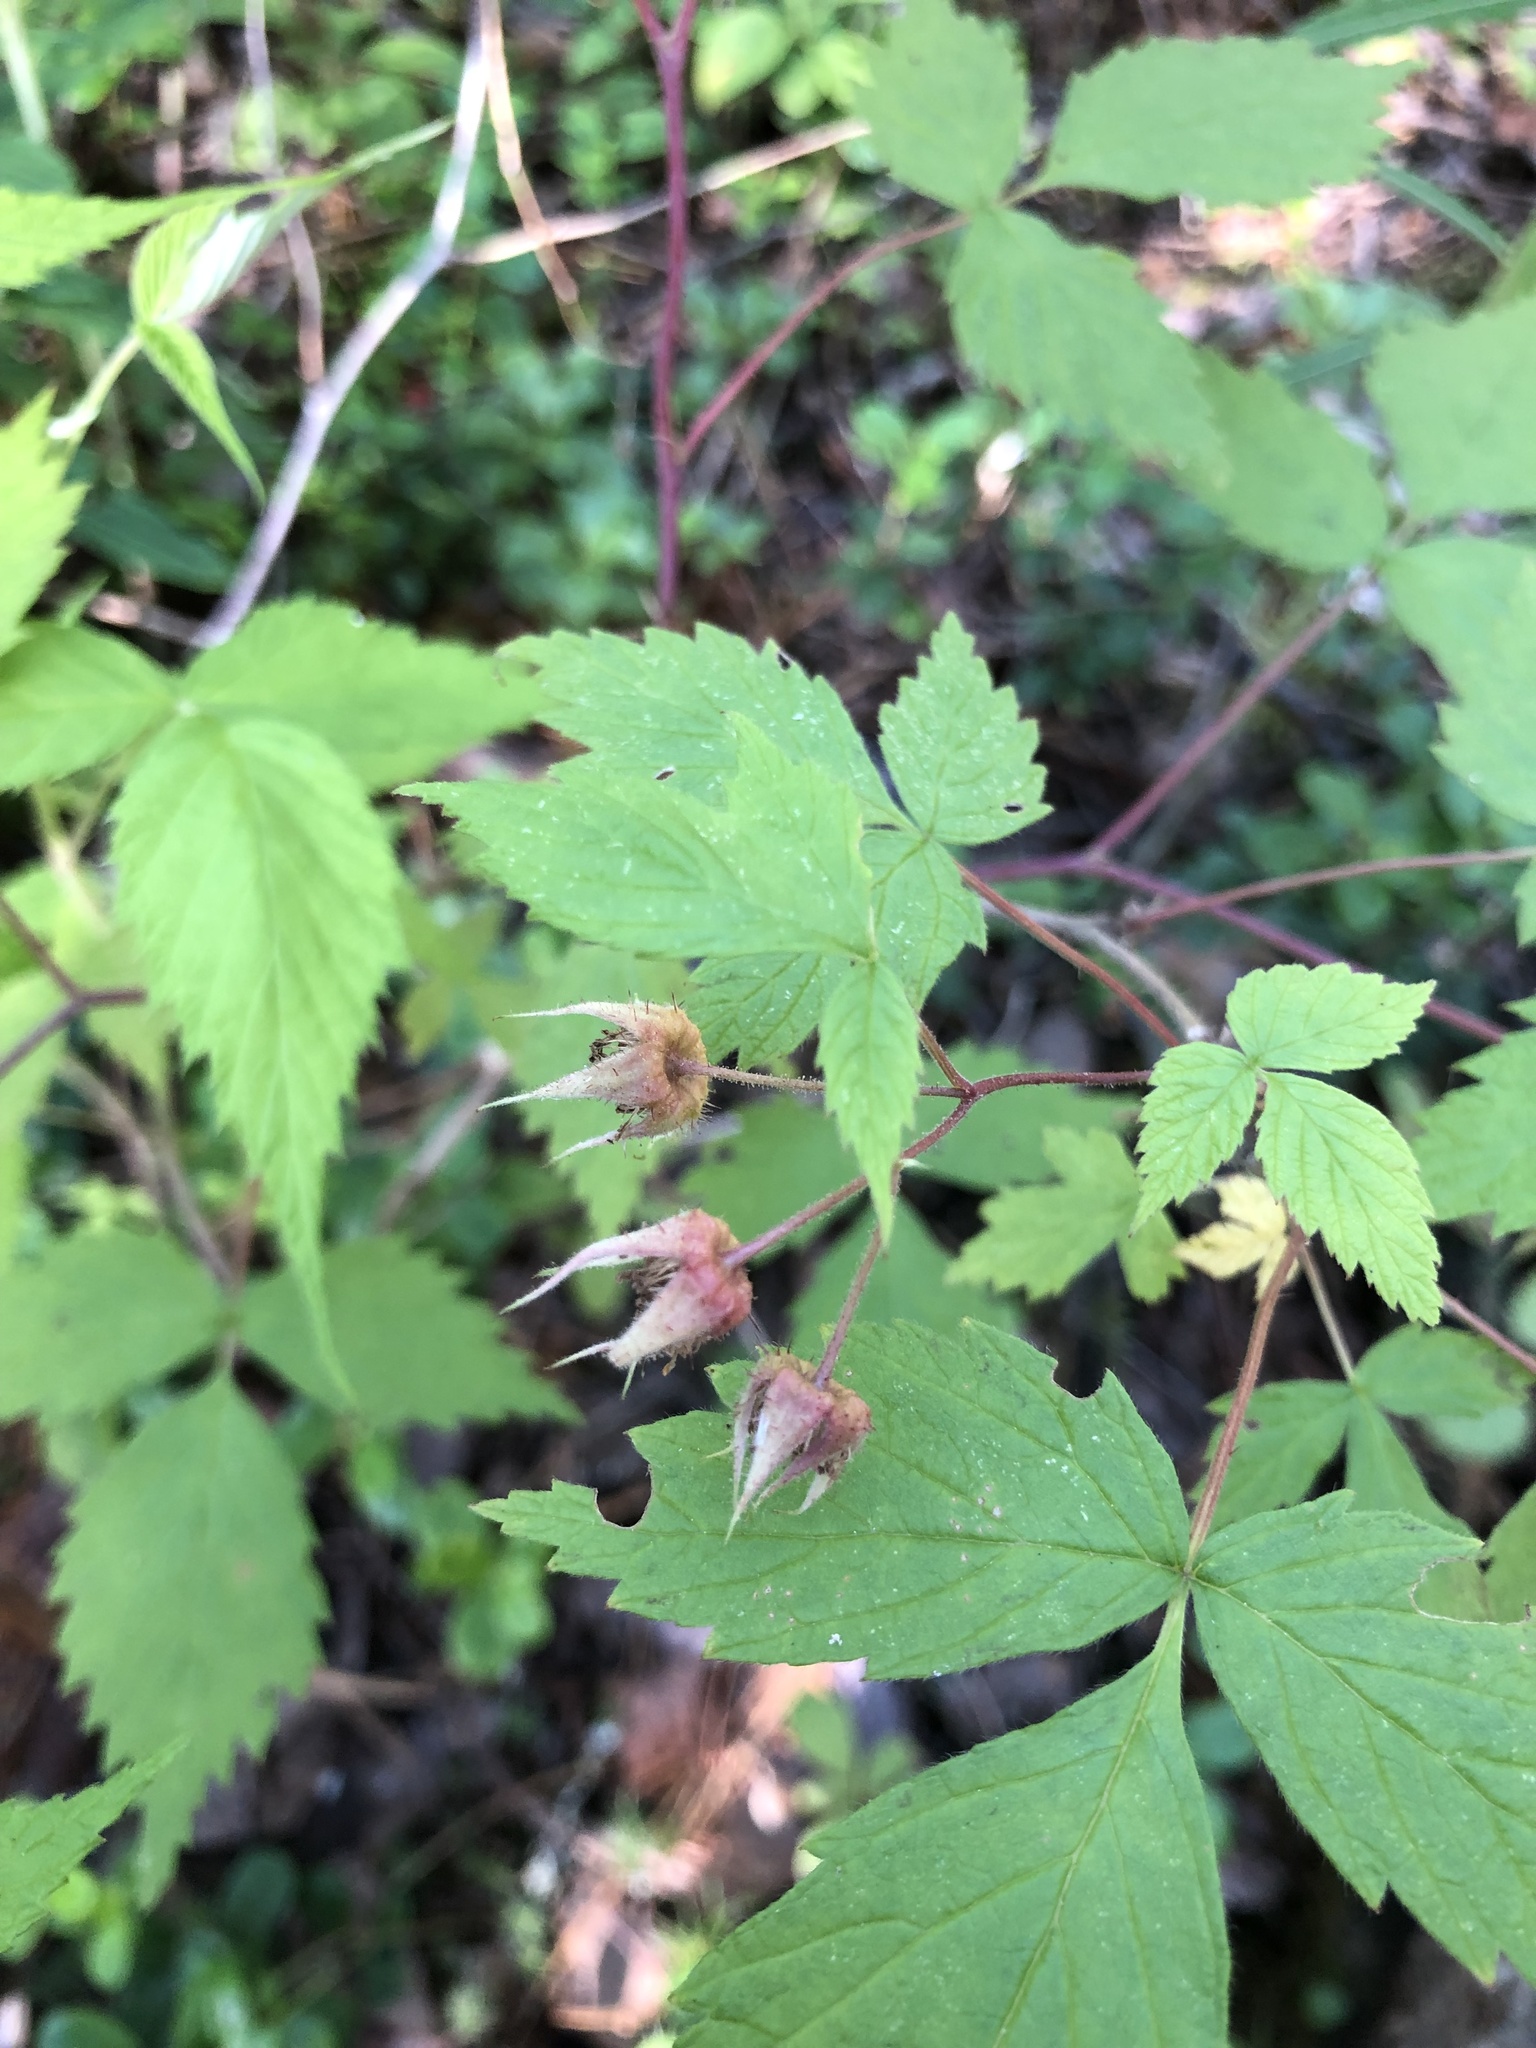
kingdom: Plantae
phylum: Tracheophyta
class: Magnoliopsida
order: Rosales
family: Rosaceae
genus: Rubus
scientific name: Rubus sachalinensis
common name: Red raspberry
